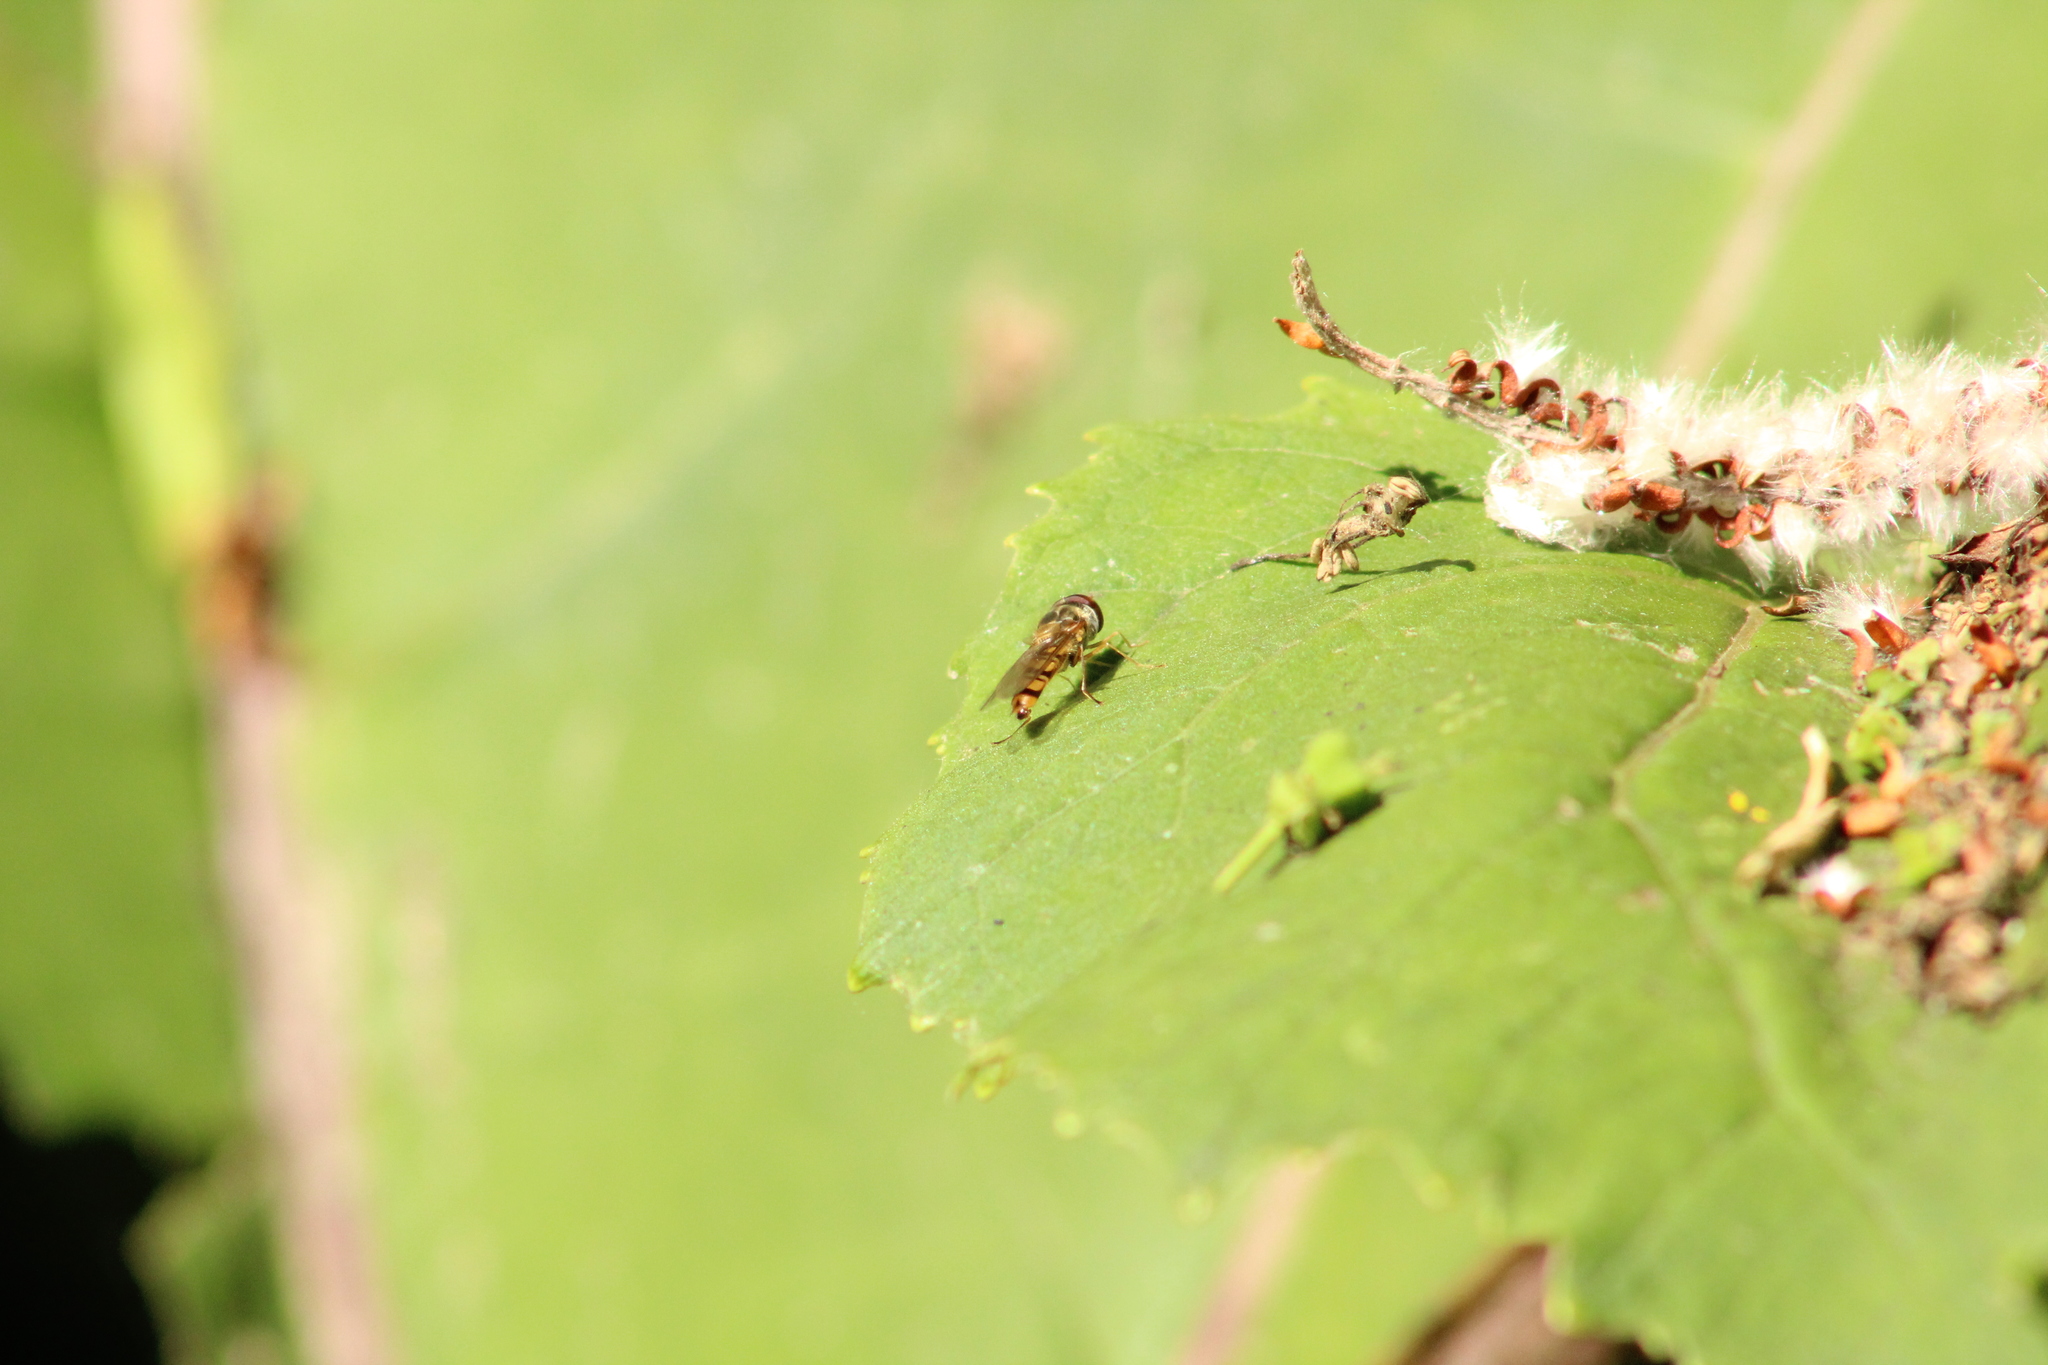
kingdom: Animalia
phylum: Arthropoda
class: Insecta
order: Diptera
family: Syrphidae
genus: Episyrphus
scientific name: Episyrphus balteatus
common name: Marmalade hoverfly
